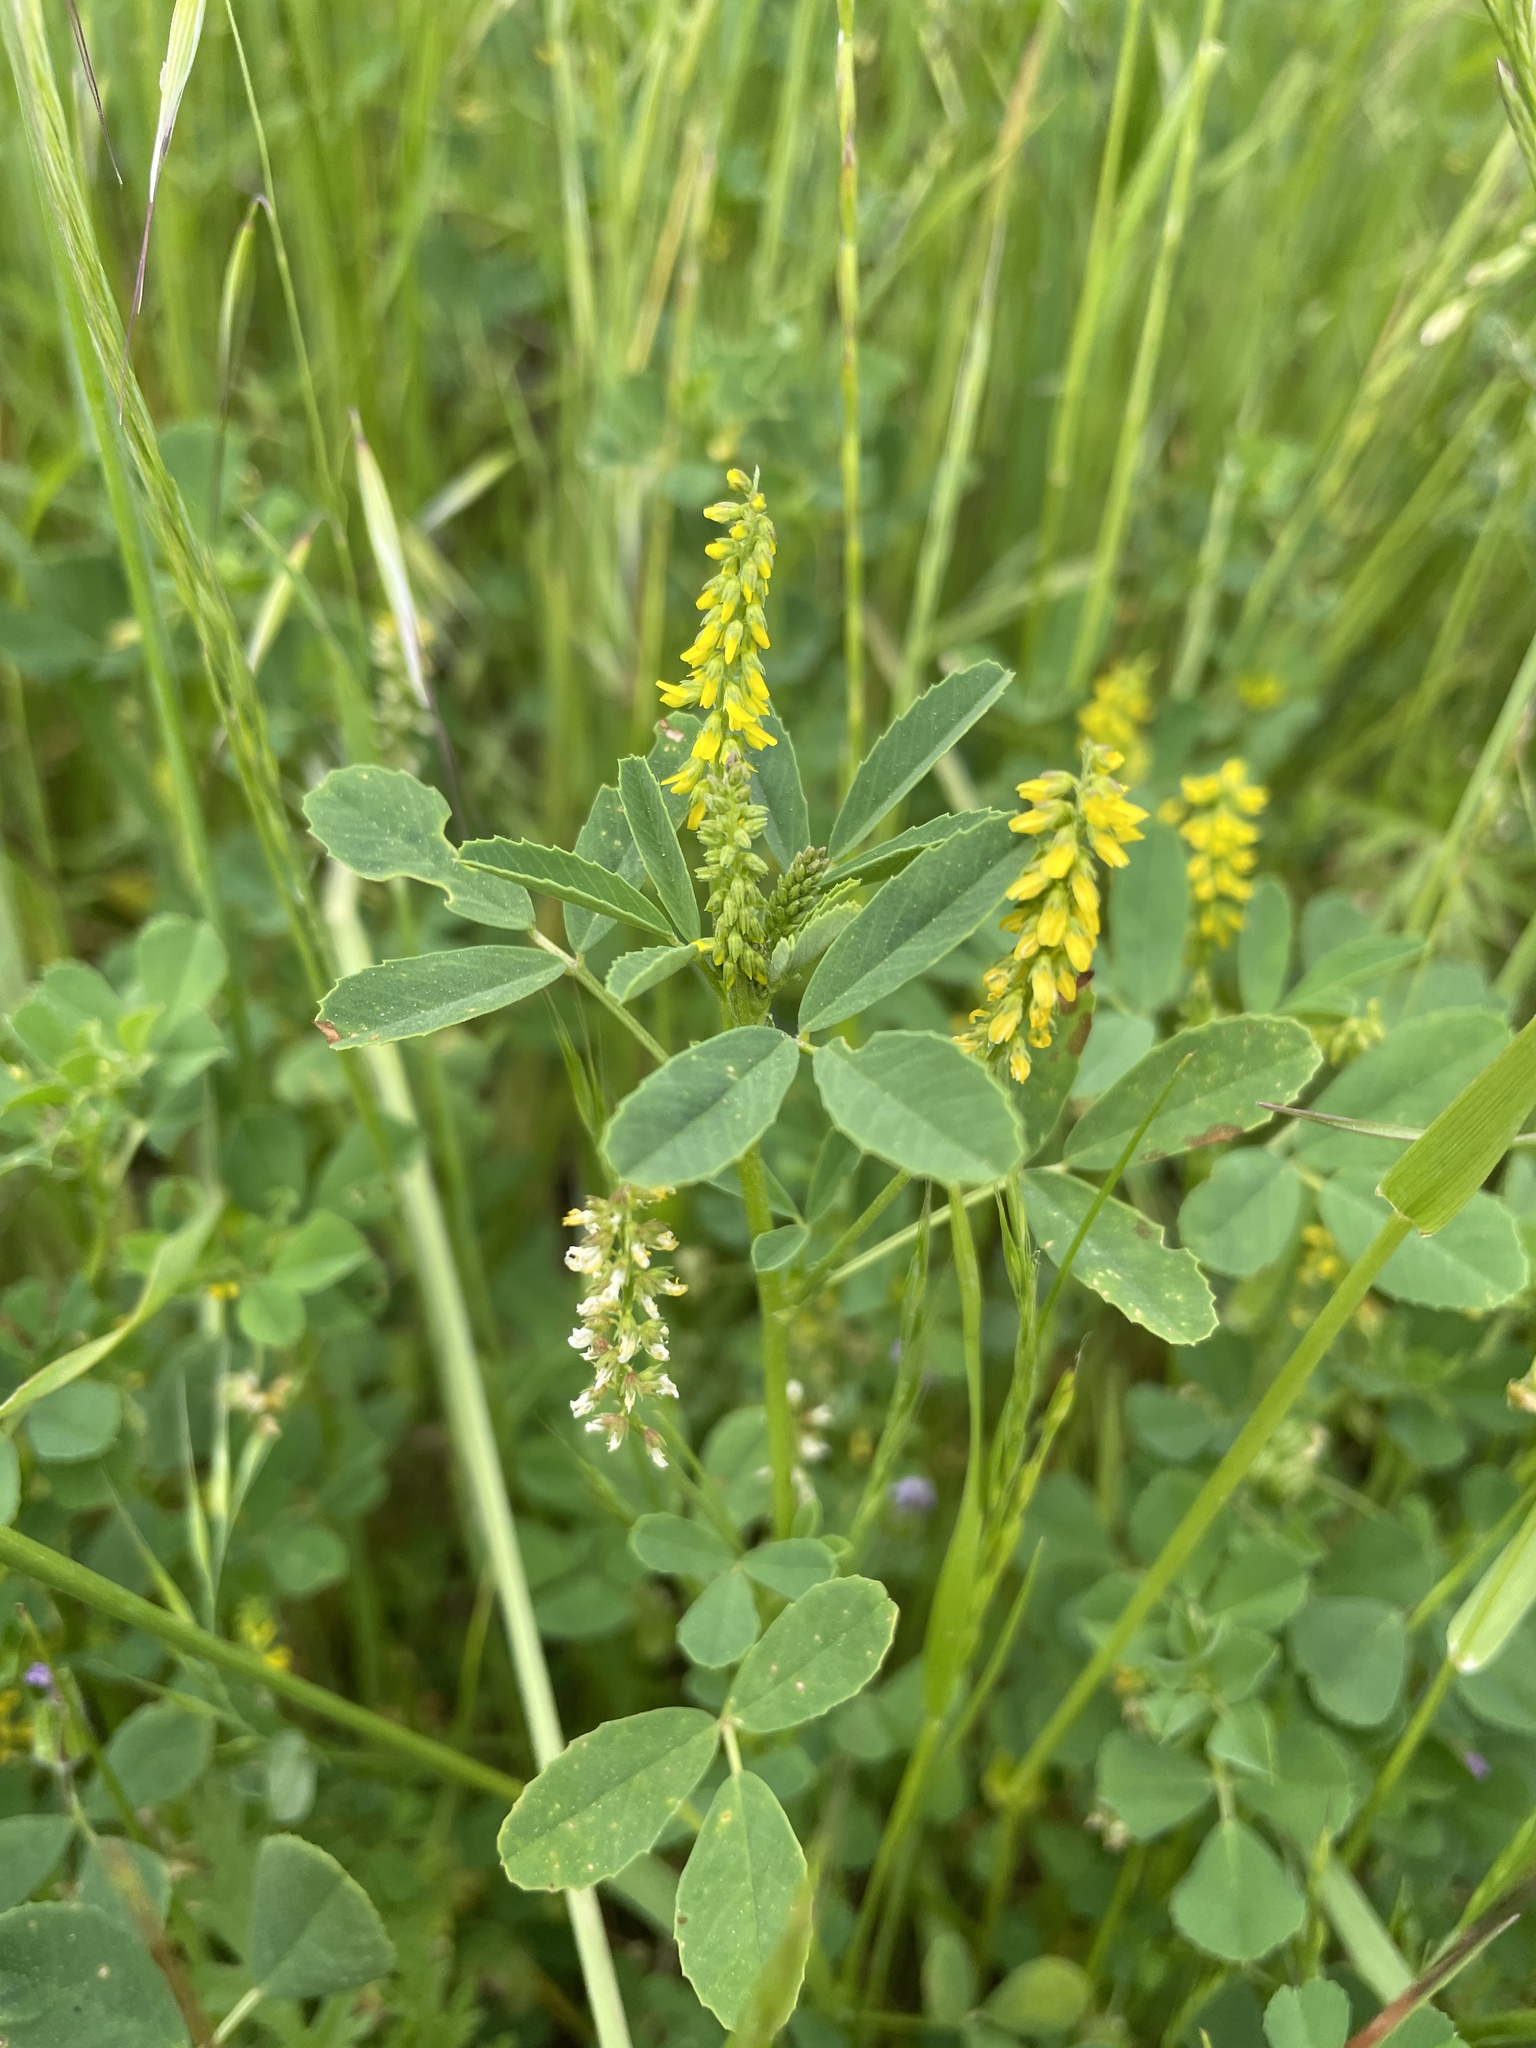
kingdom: Plantae
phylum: Tracheophyta
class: Magnoliopsida
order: Fabales
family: Fabaceae
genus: Melilotus
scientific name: Melilotus indicus
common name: Small melilot
